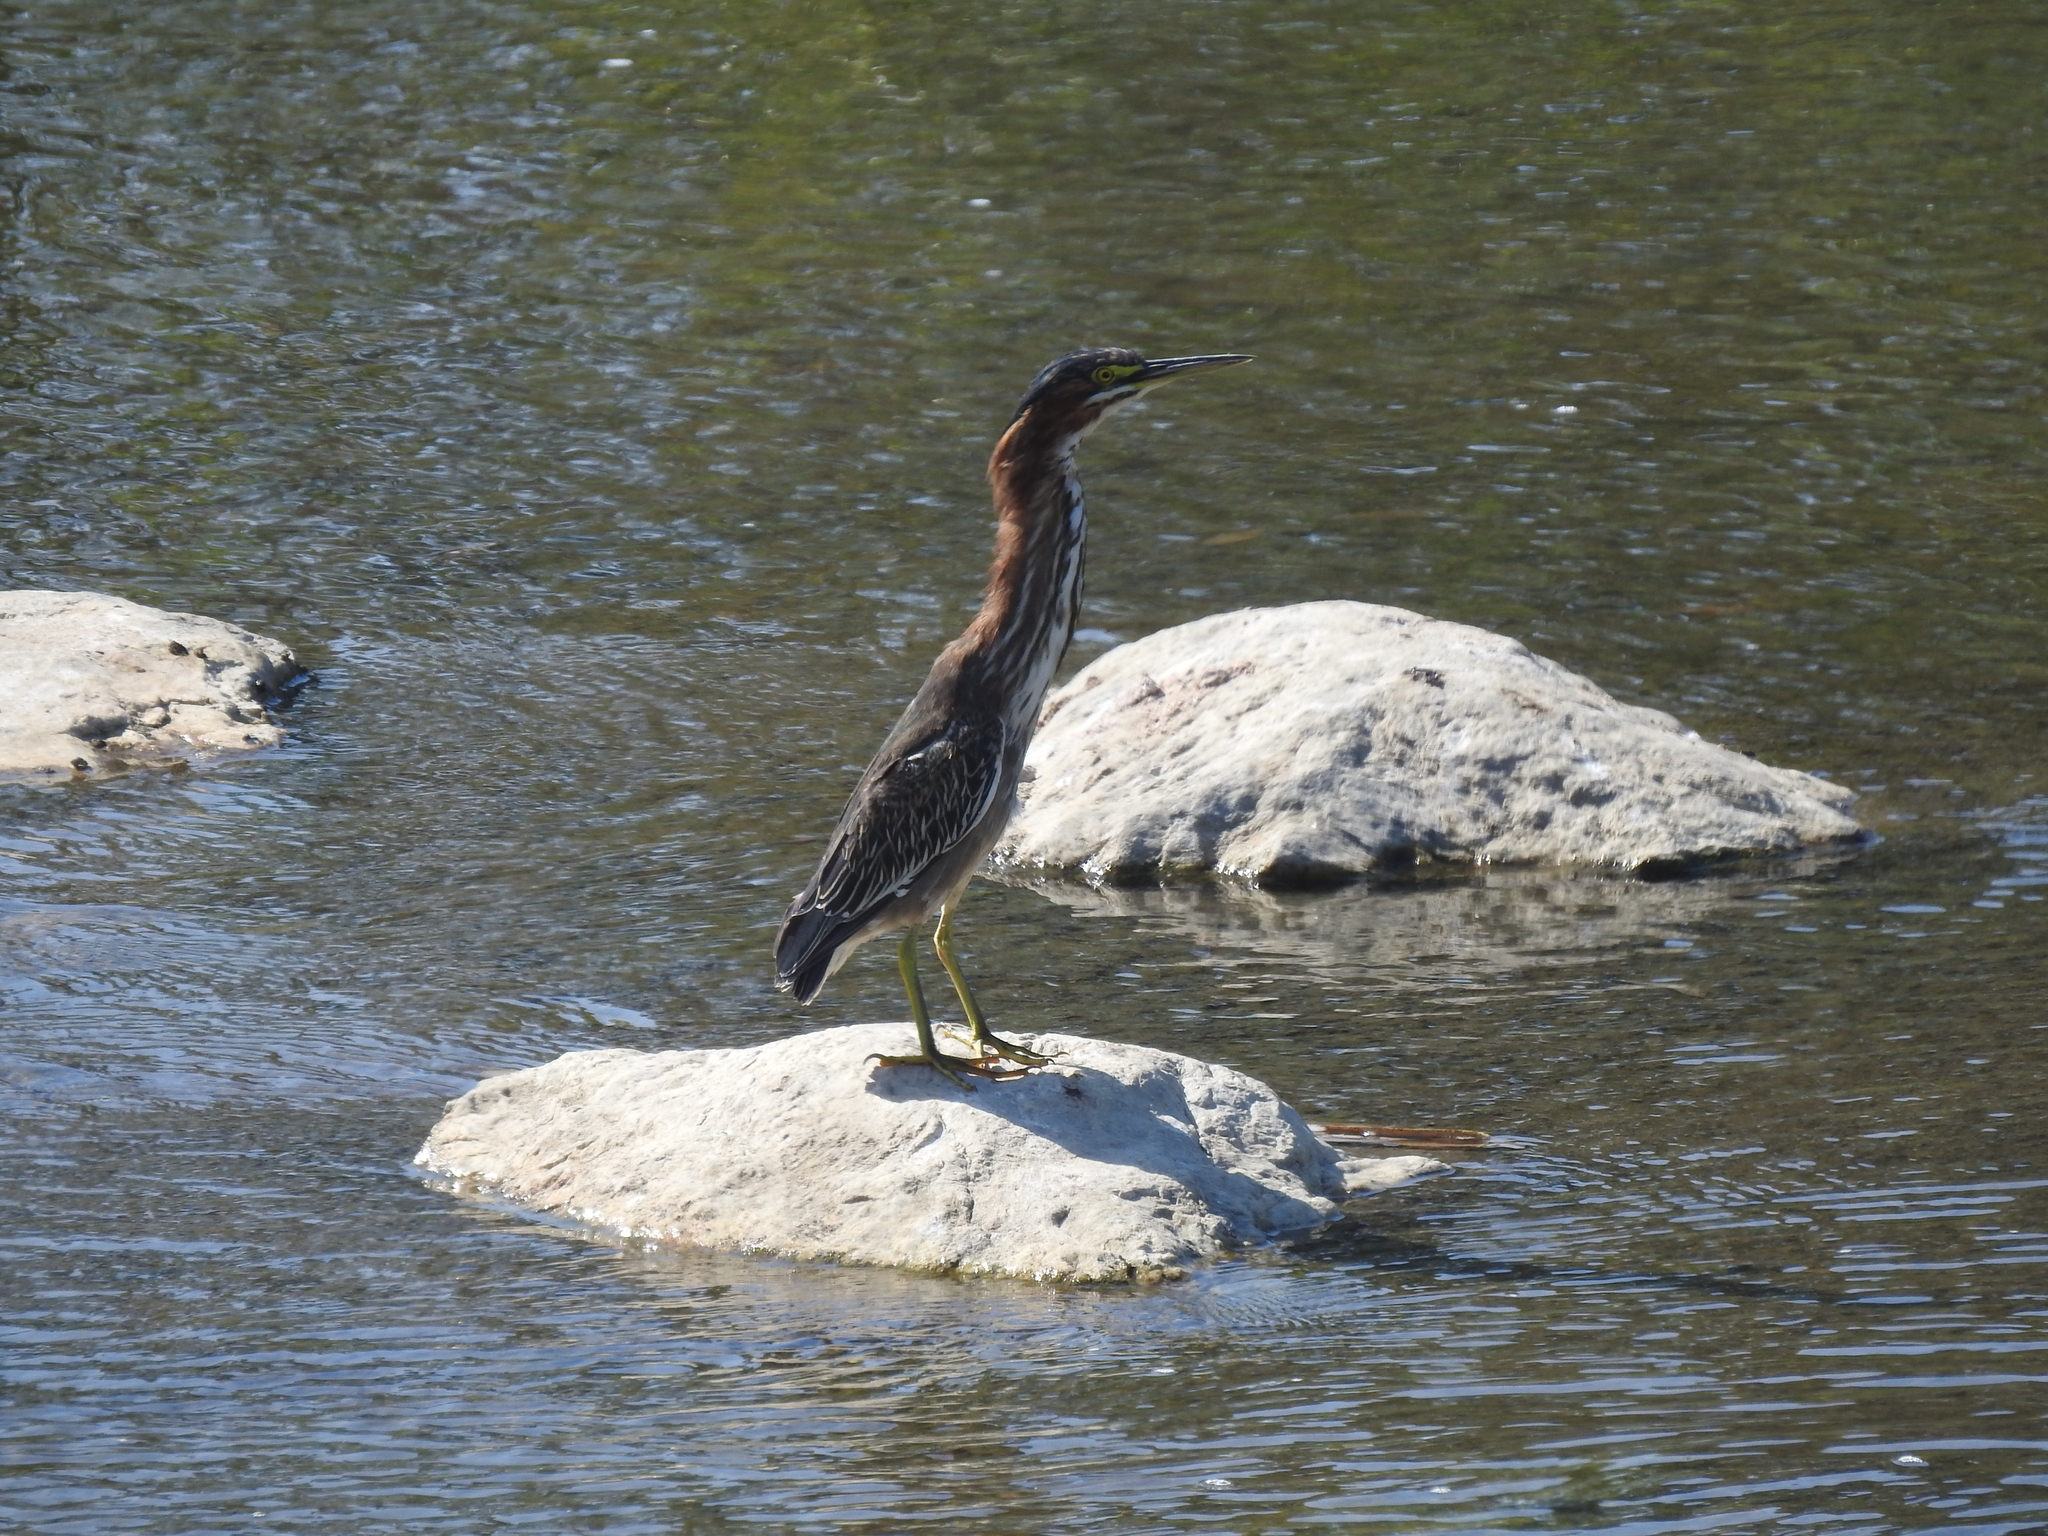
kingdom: Animalia
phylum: Chordata
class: Aves
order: Pelecaniformes
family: Ardeidae
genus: Butorides
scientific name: Butorides virescens
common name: Green heron
